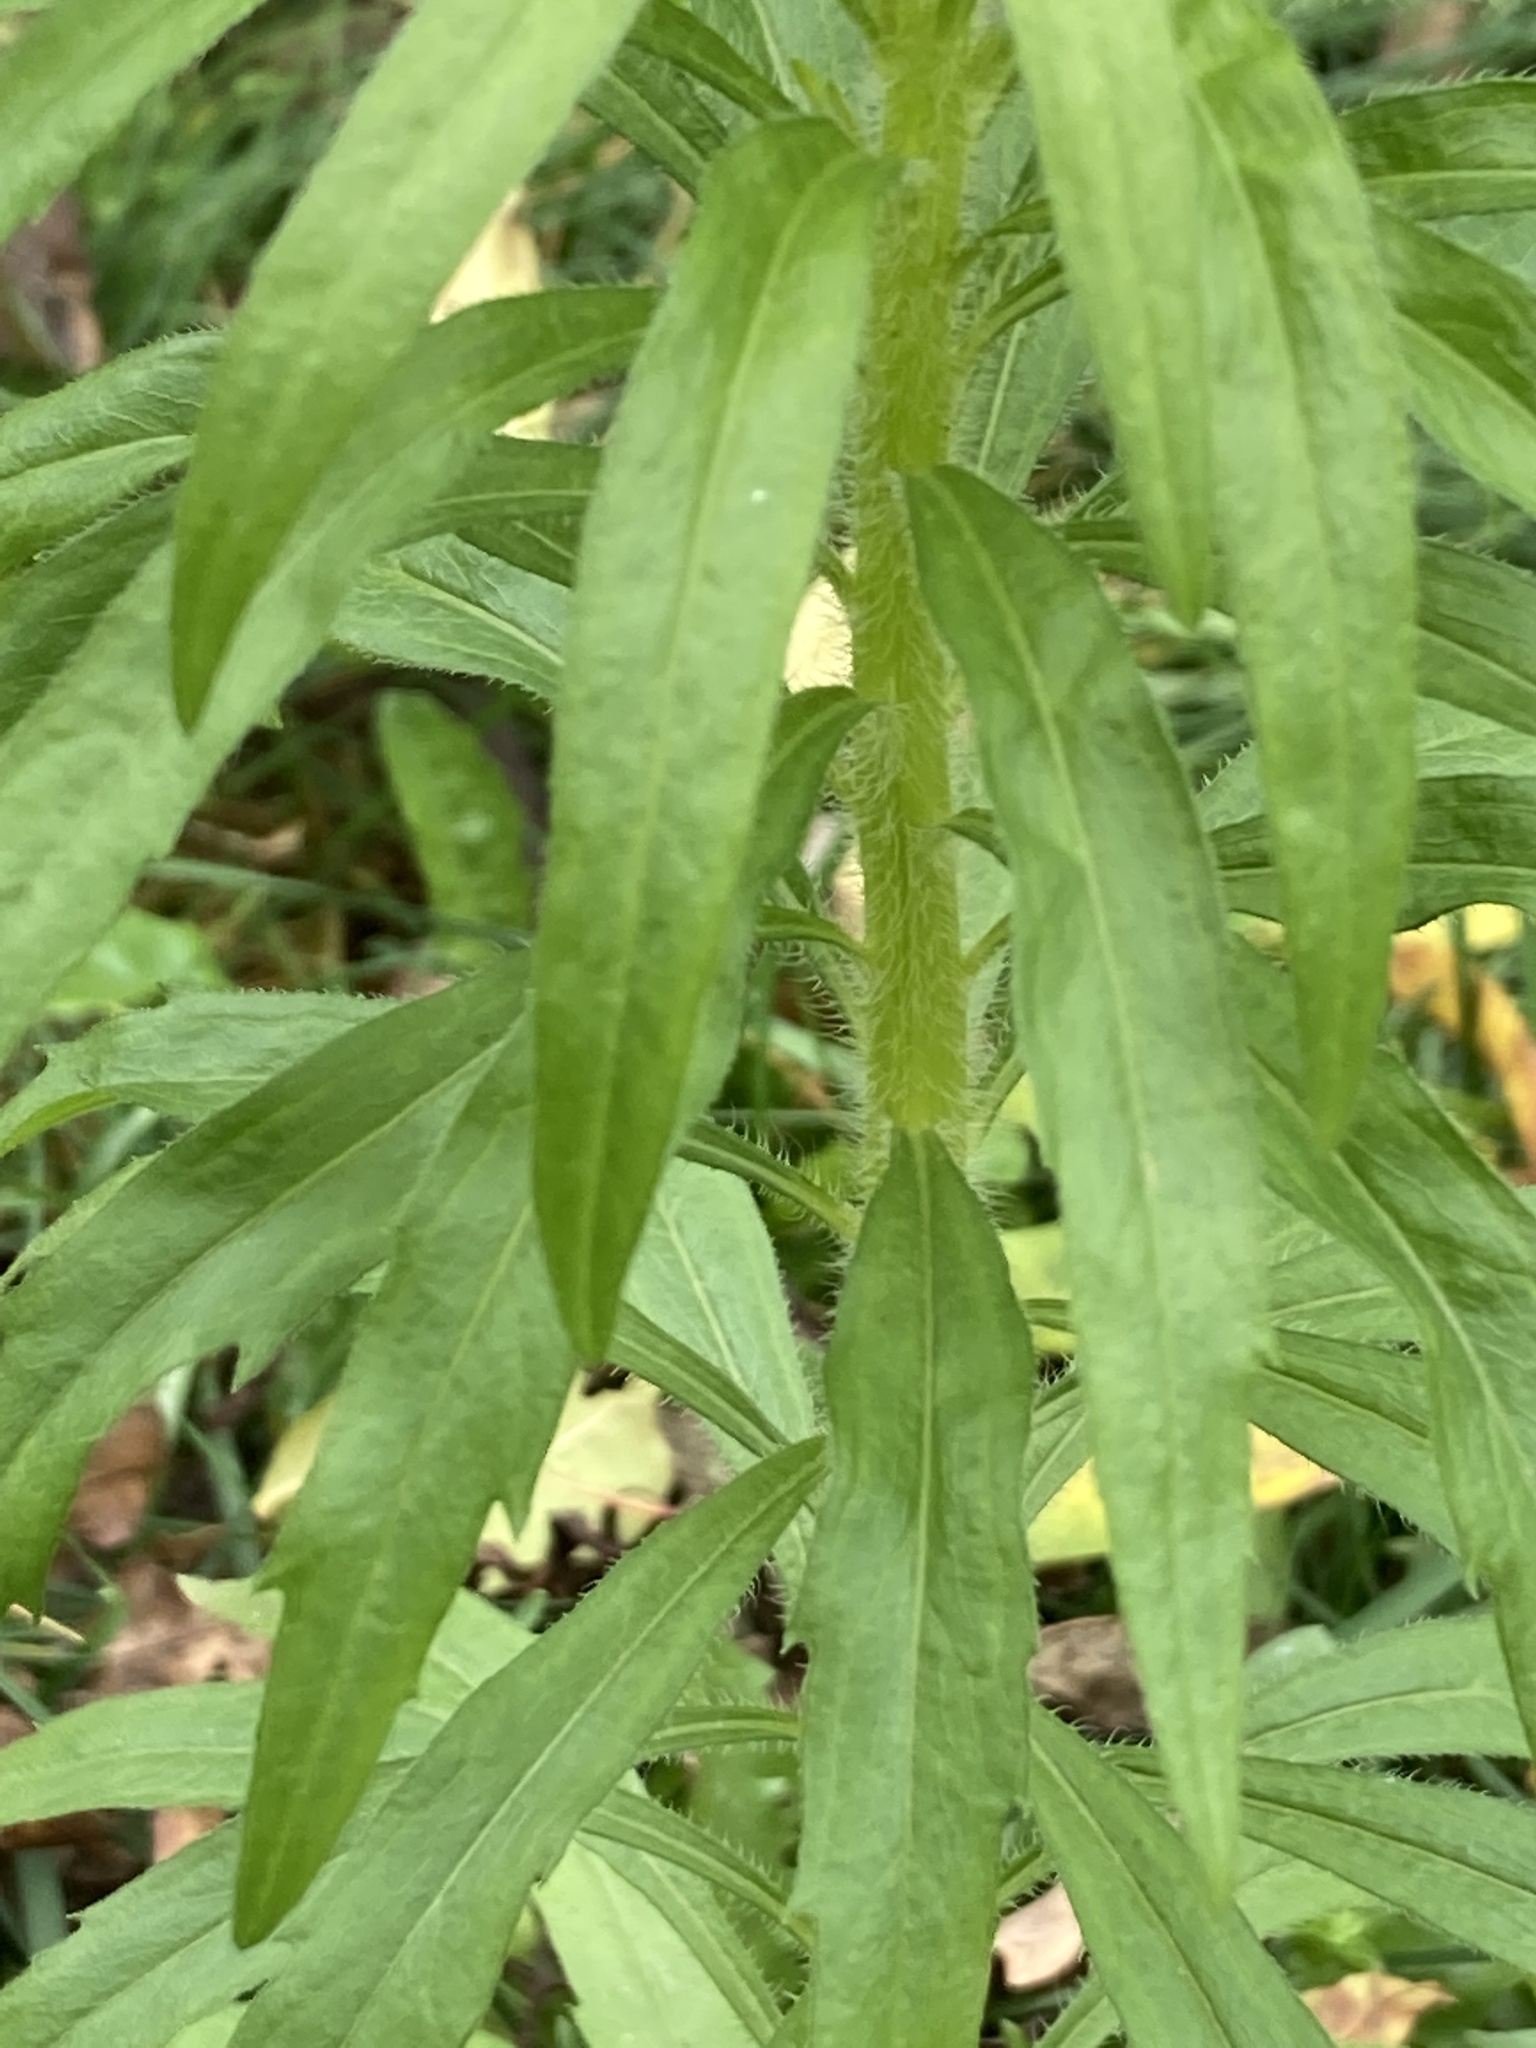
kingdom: Plantae
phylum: Tracheophyta
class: Magnoliopsida
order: Asterales
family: Asteraceae
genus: Erigeron
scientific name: Erigeron canadensis
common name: Canadian fleabane
